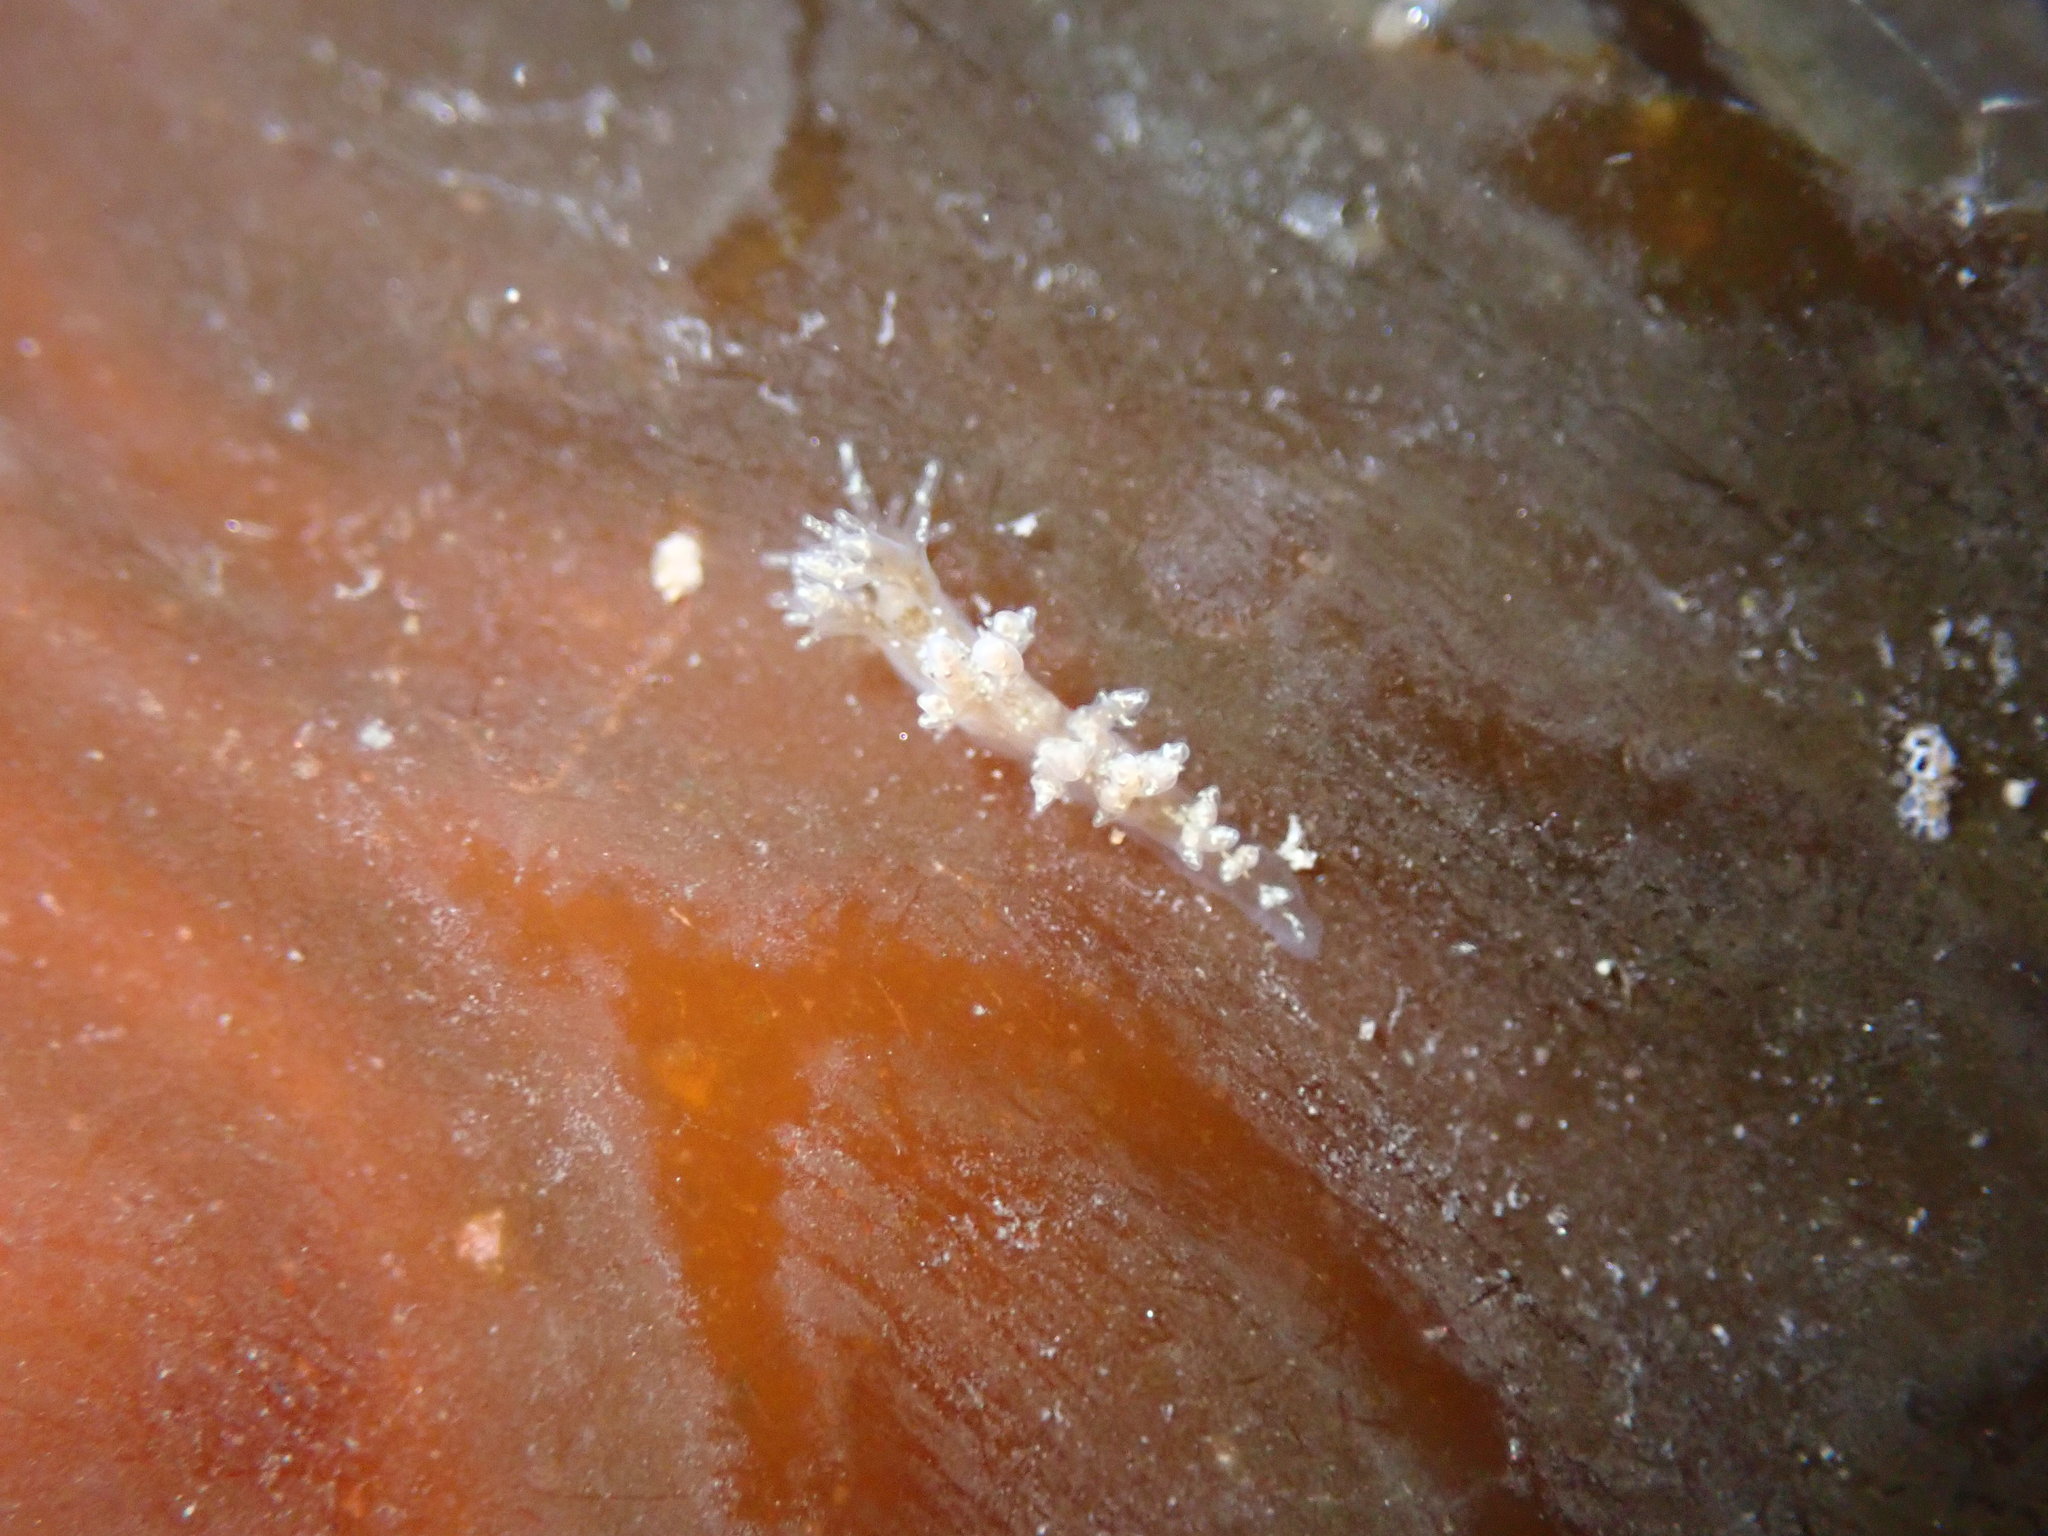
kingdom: Animalia
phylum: Mollusca
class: Gastropoda
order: Nudibranchia
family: Dendronotidae
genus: Dendronotus
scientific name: Dendronotus venustus
